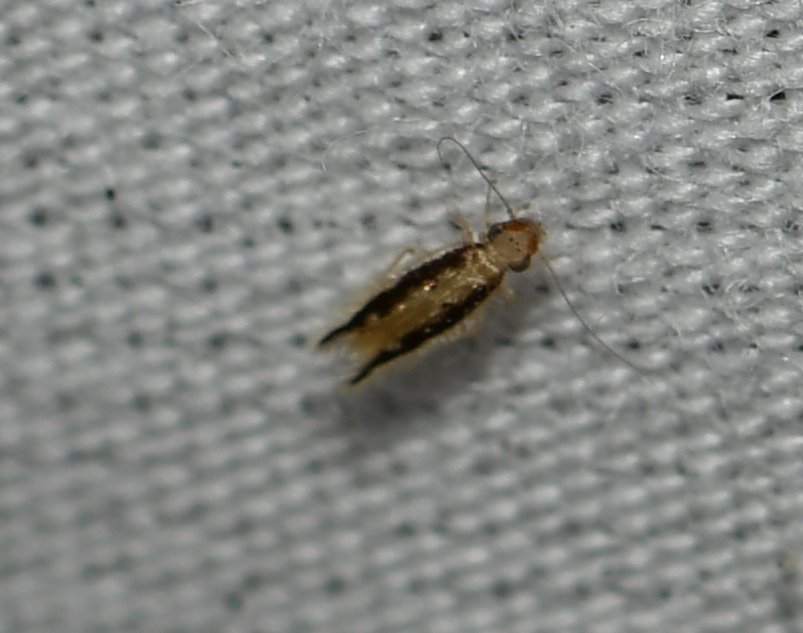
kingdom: Animalia
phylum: Arthropoda
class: Insecta
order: Psocodea
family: Lepidopsocidae
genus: Echmepteryx
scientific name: Echmepteryx madagascariensis
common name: Bark lice
